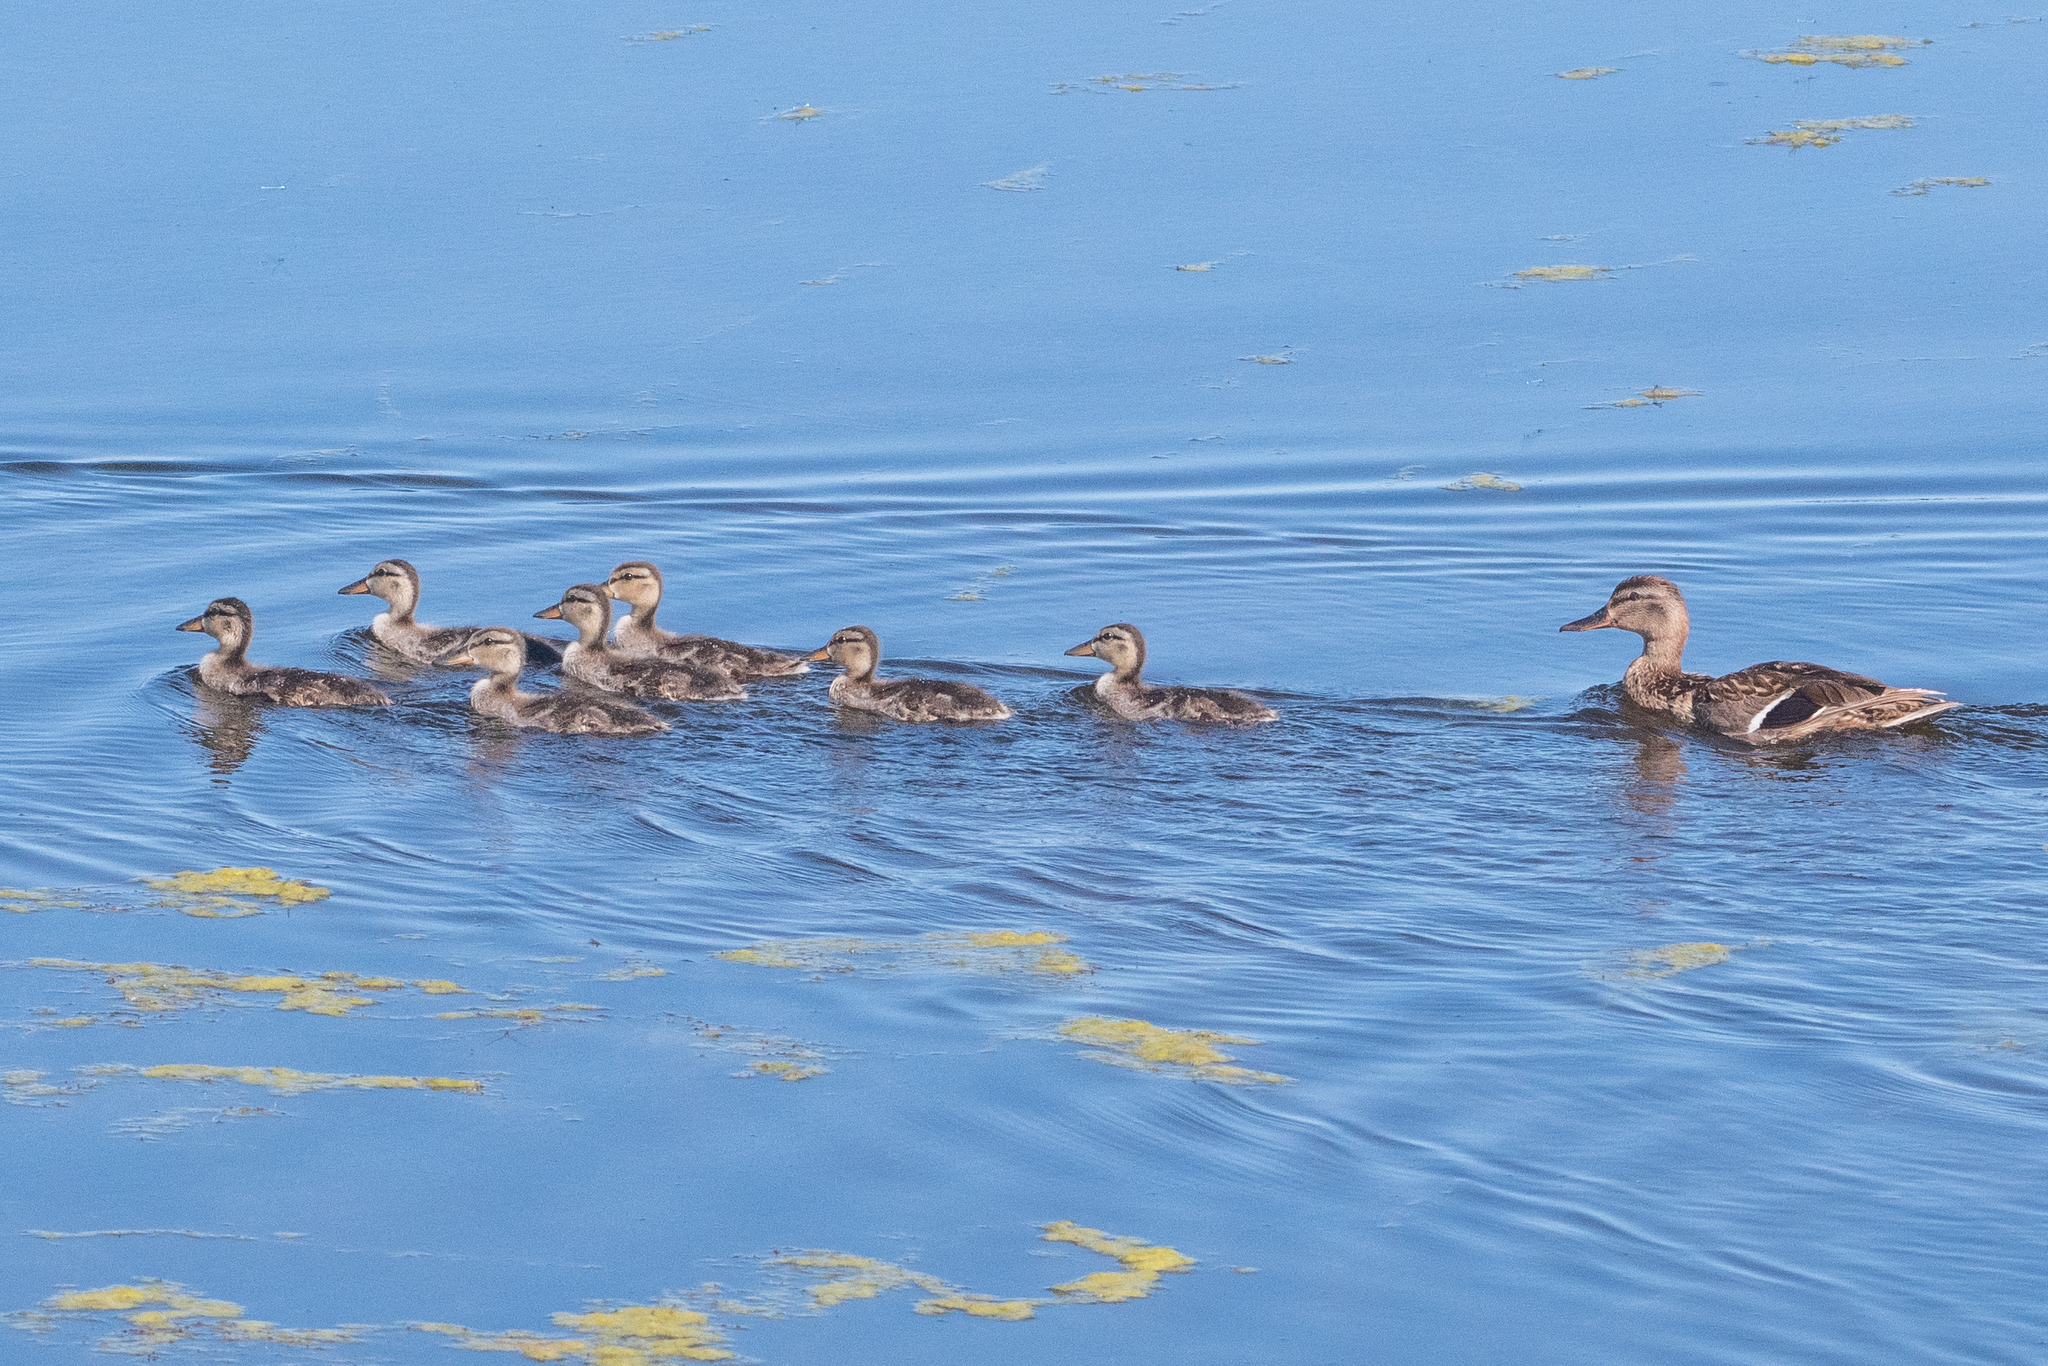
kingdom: Animalia
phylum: Chordata
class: Aves
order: Anseriformes
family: Anatidae
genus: Anas
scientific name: Anas platyrhynchos
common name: Mallard
